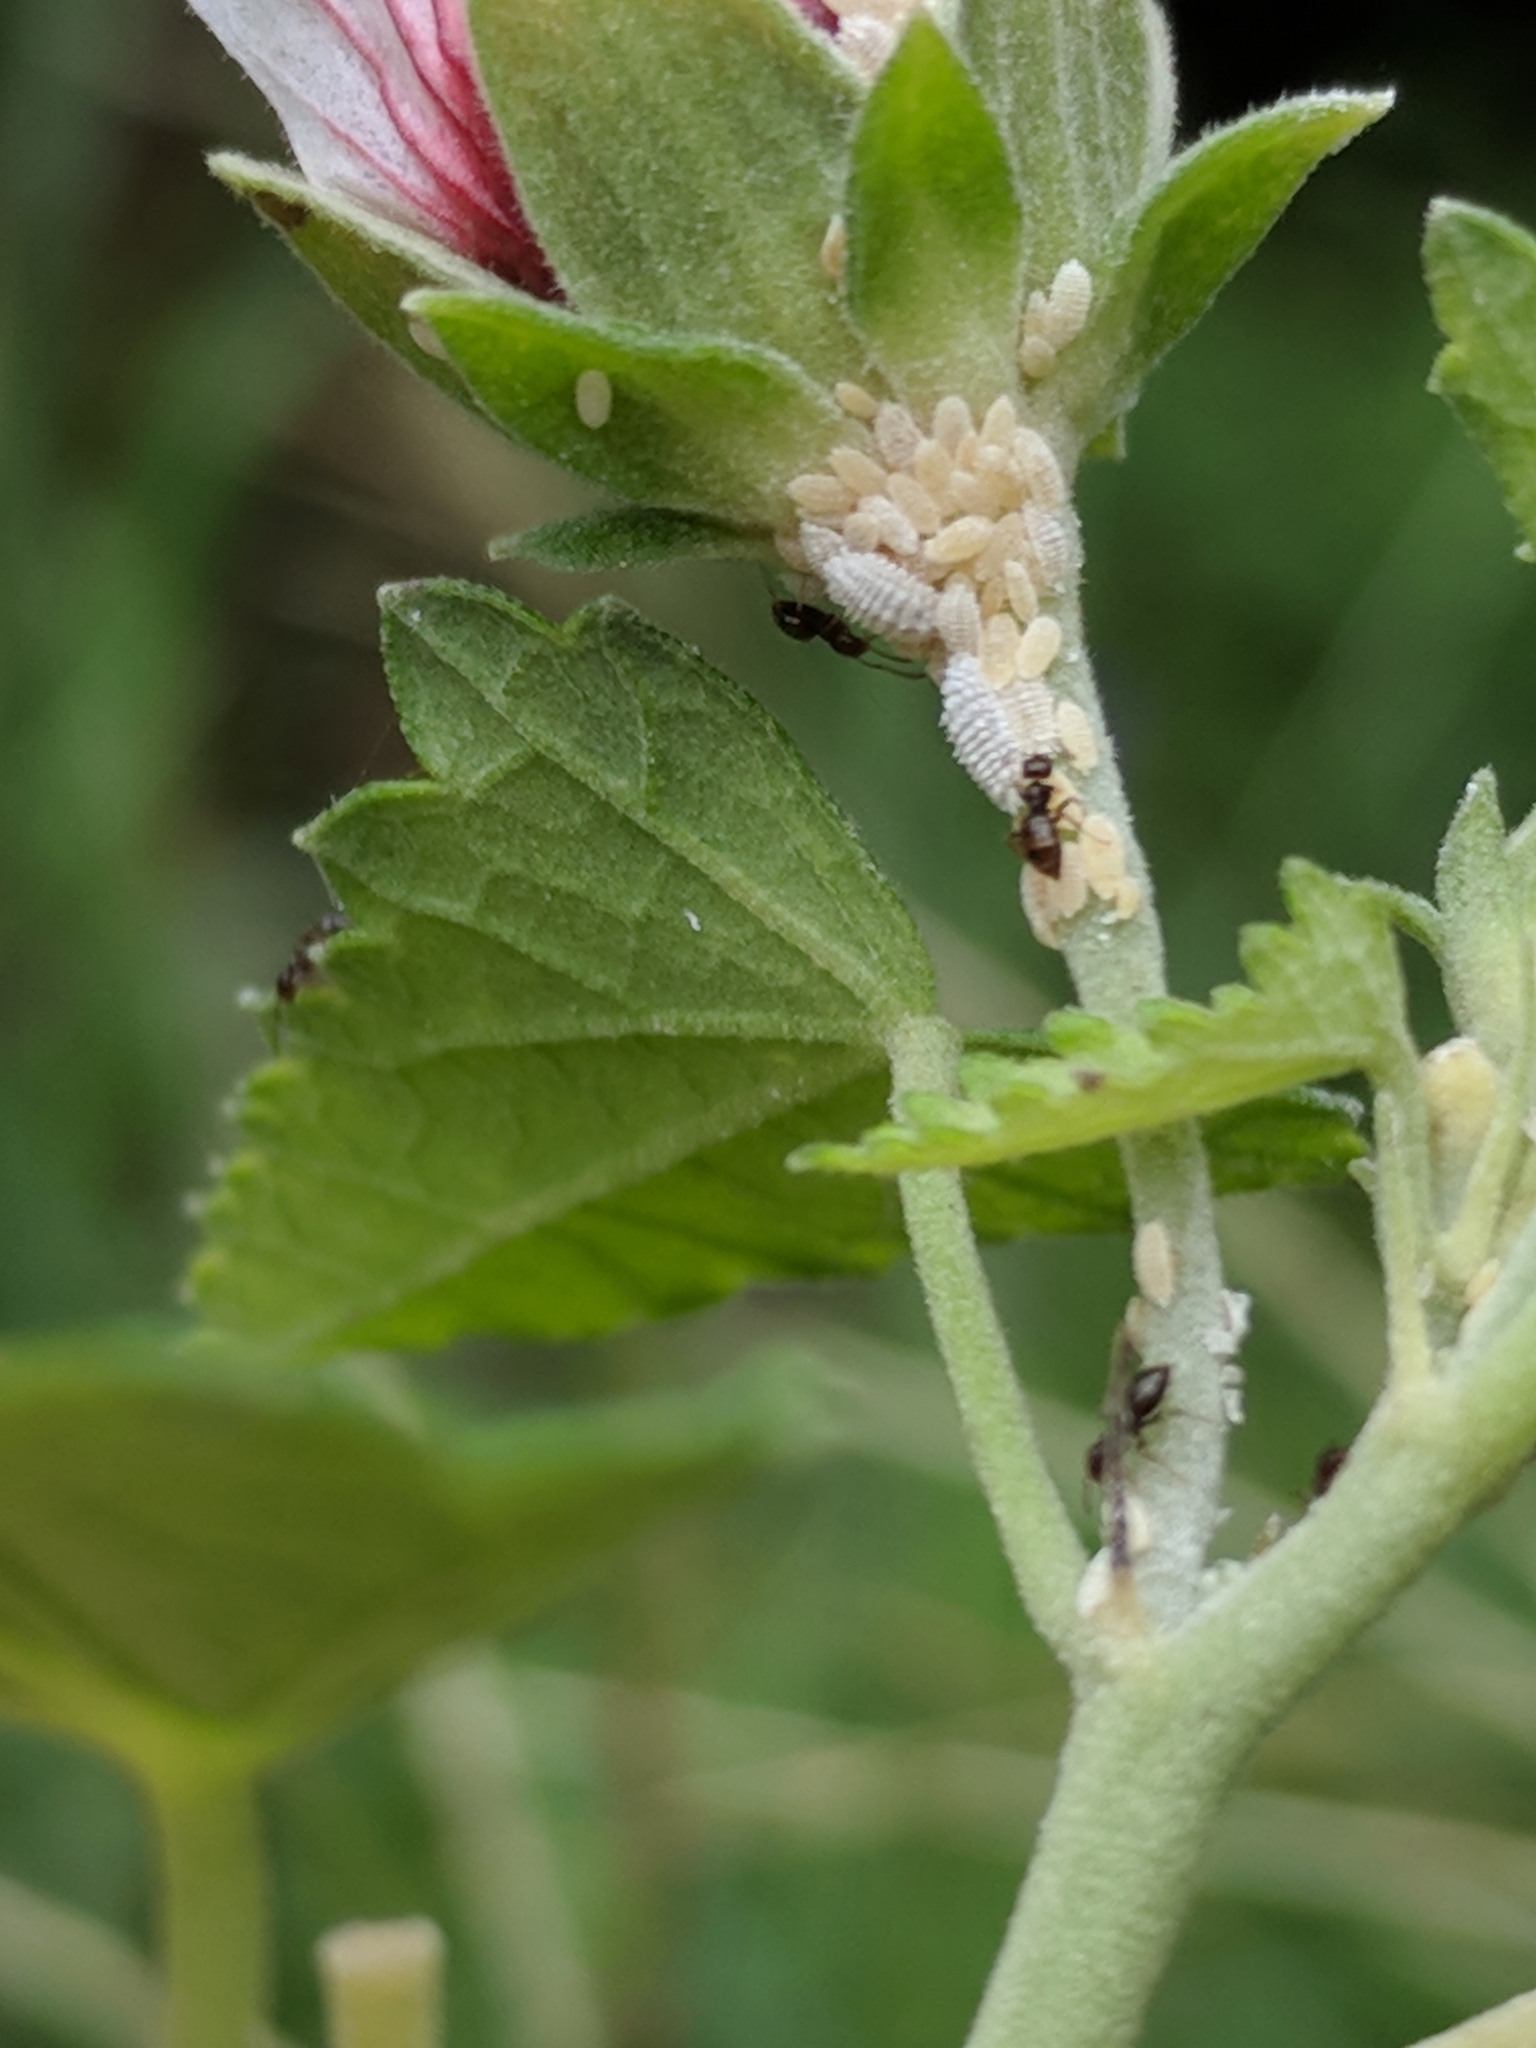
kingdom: Plantae
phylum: Tracheophyta
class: Magnoliopsida
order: Malvales
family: Malvaceae
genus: Pavonia
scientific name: Pavonia hastata
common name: Spearleaf swampmallow
